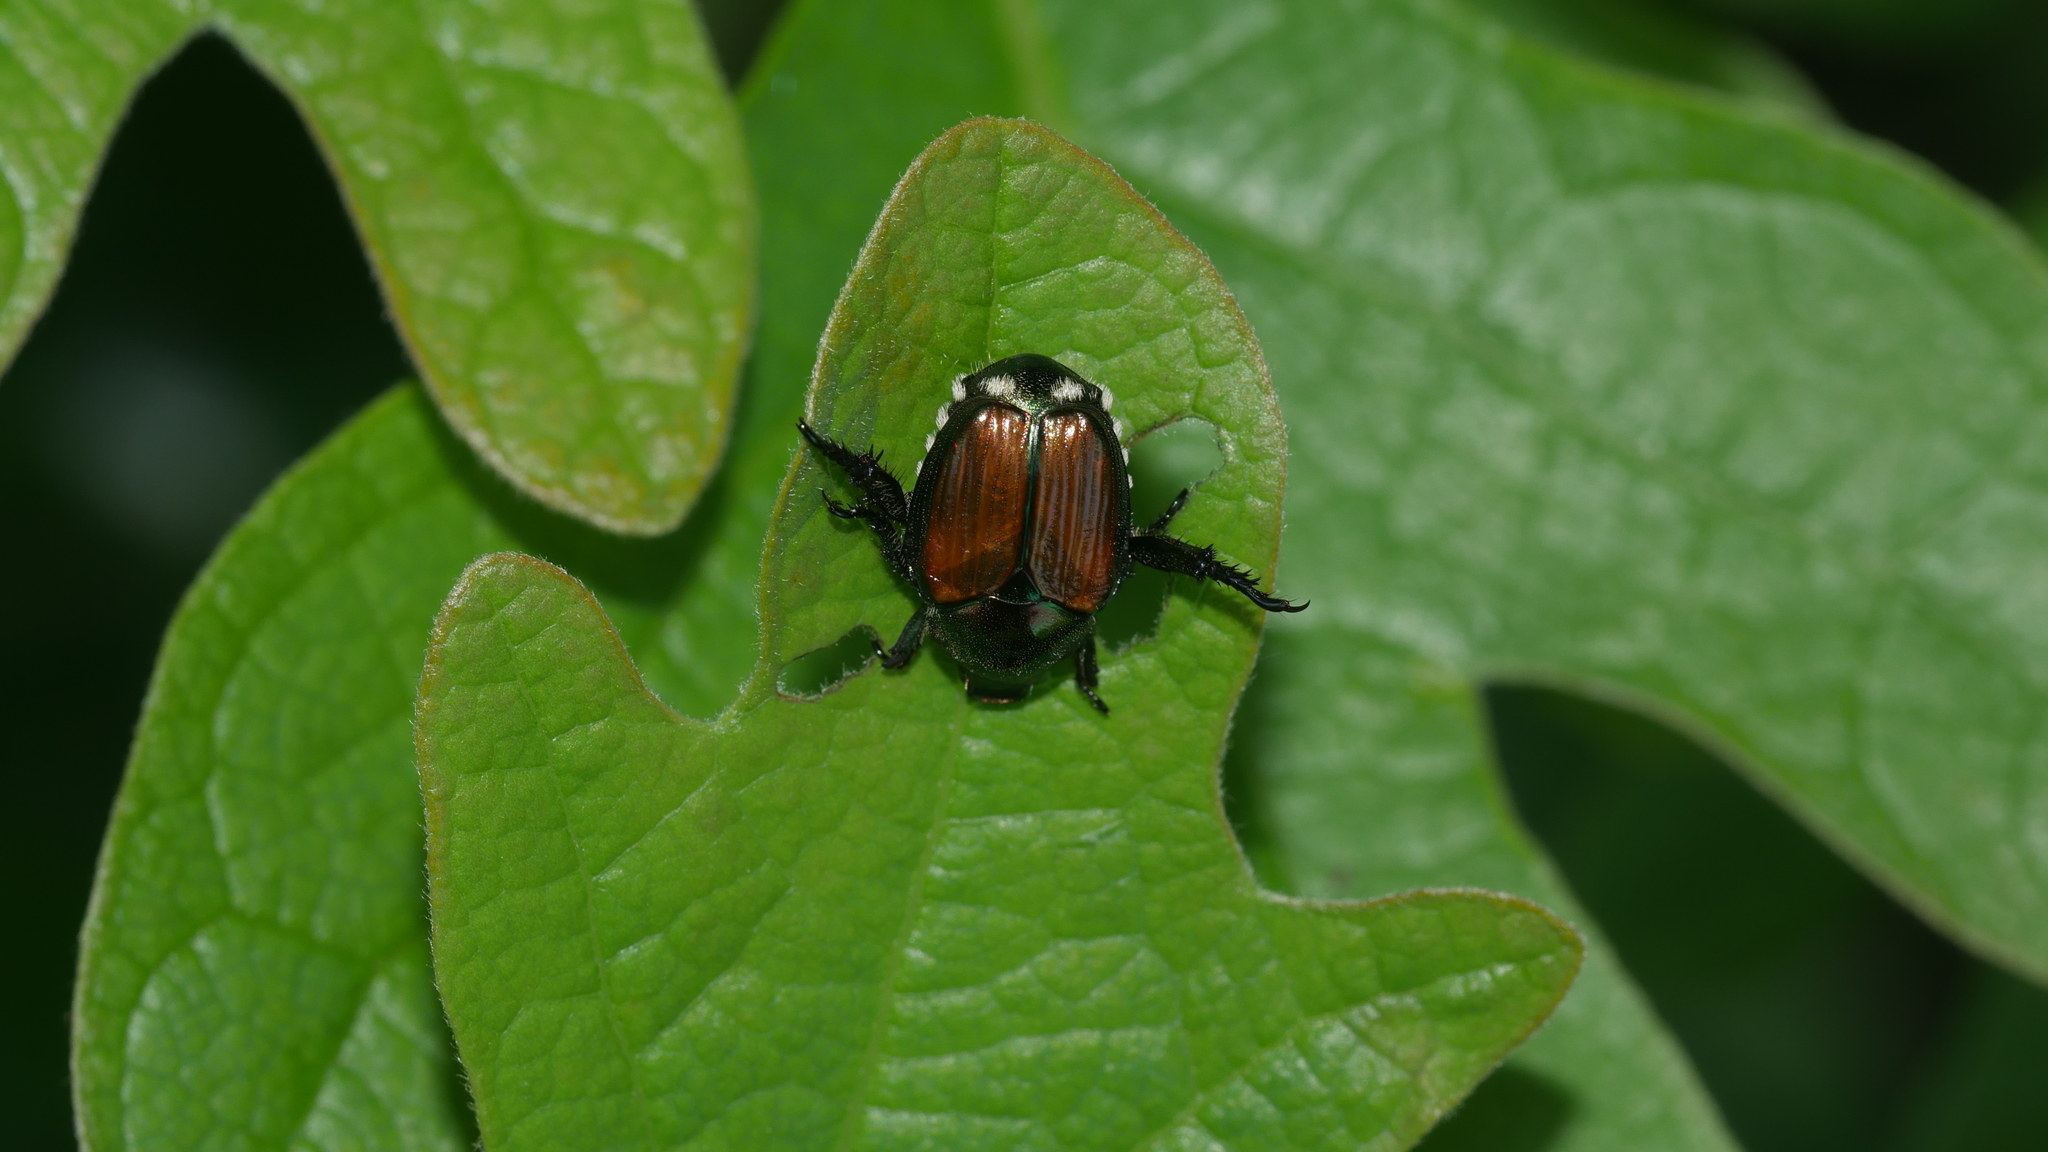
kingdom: Animalia
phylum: Arthropoda
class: Insecta
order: Coleoptera
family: Scarabaeidae
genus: Popillia
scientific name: Popillia japonica
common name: Japanese beetle
